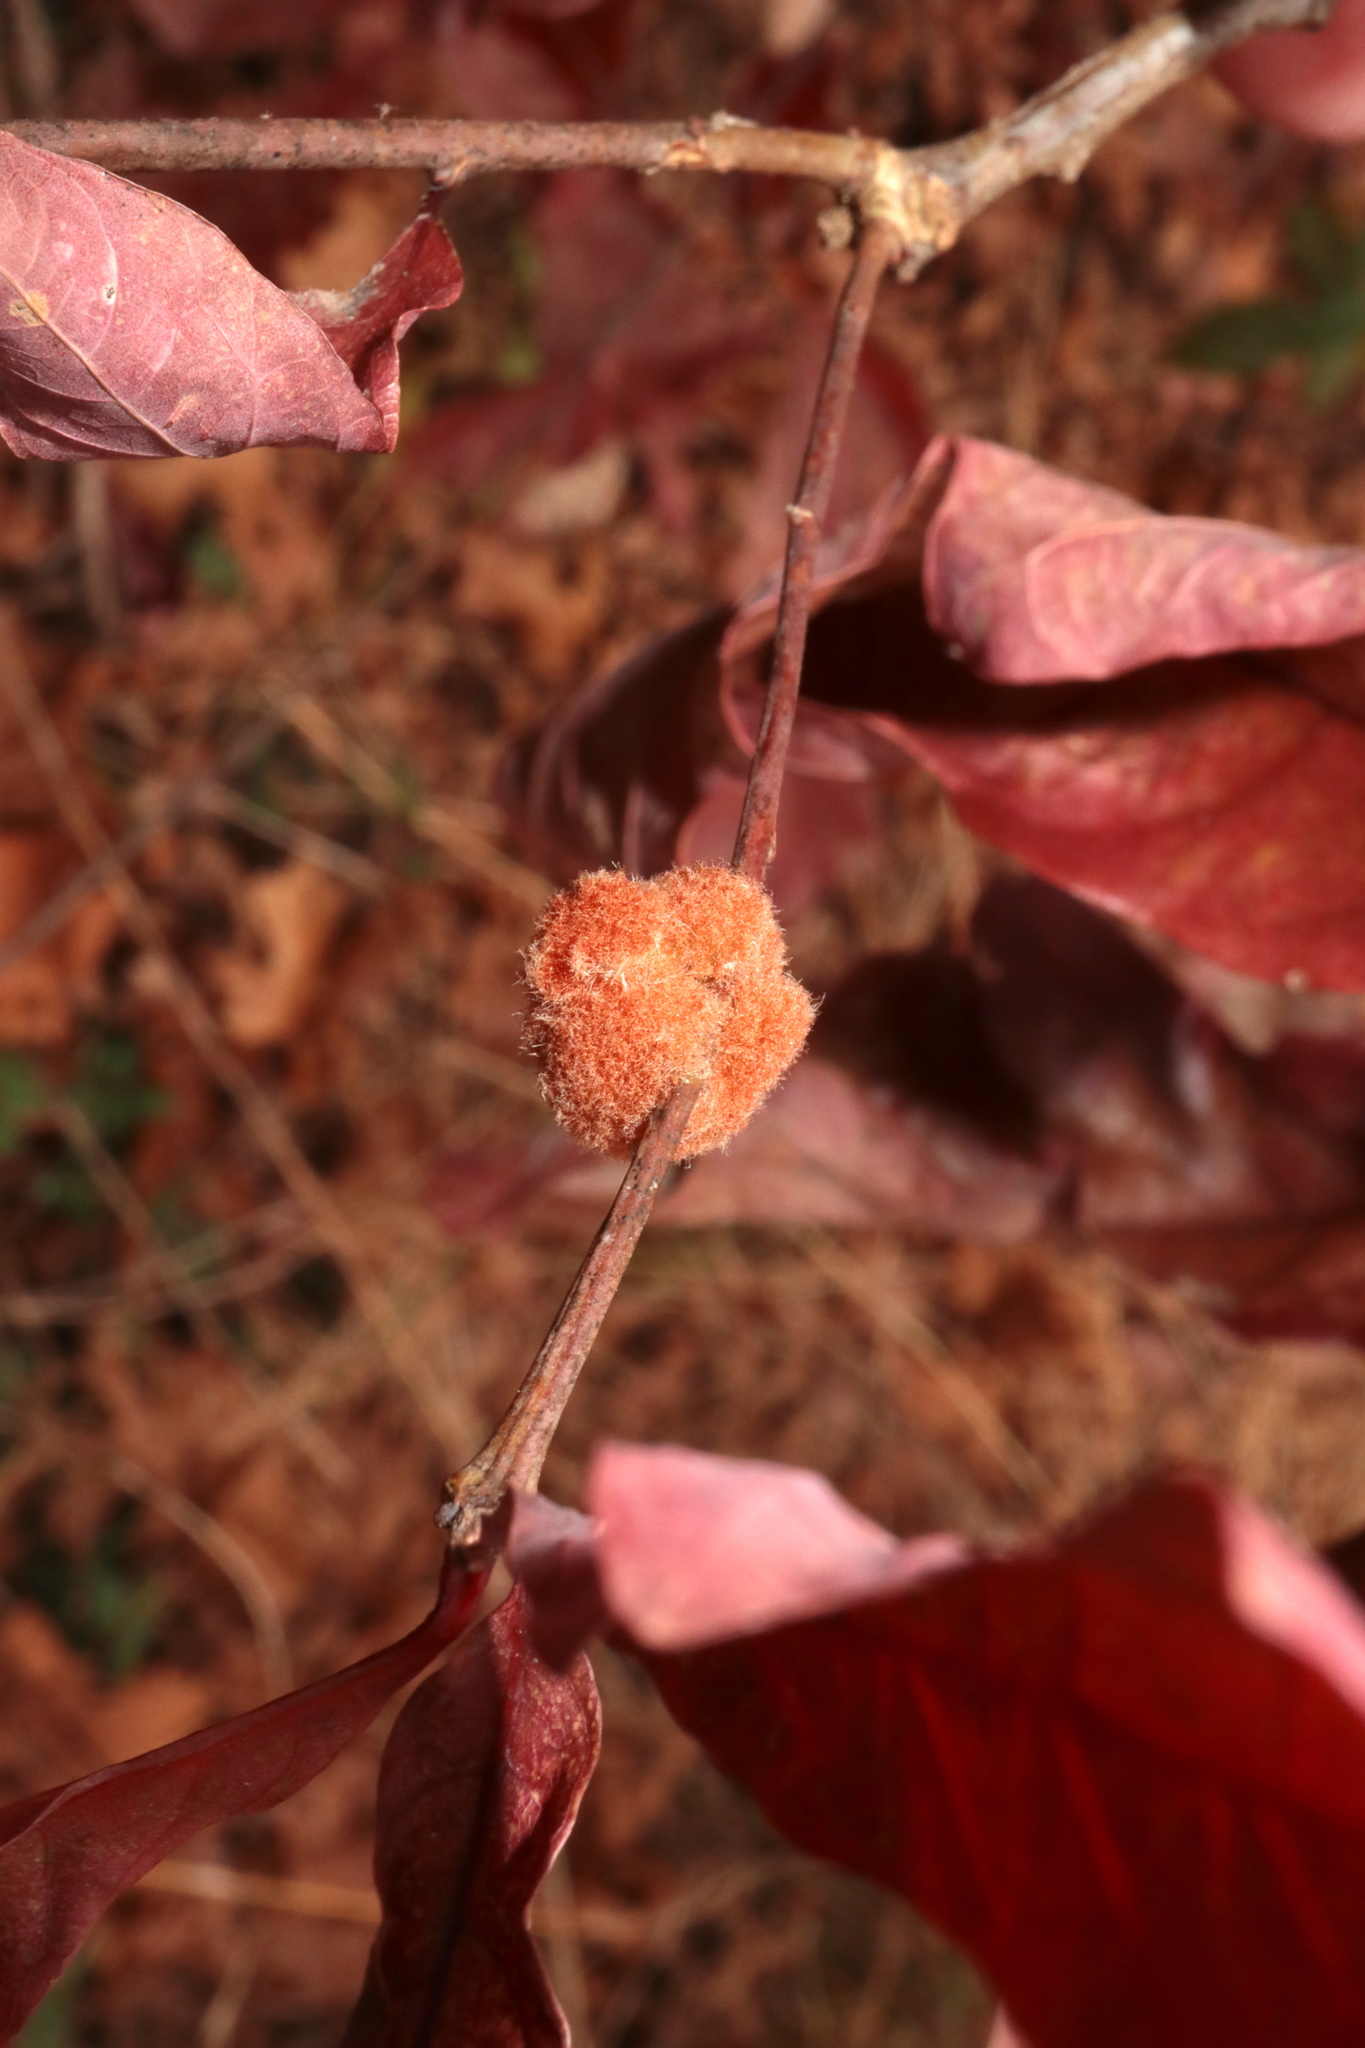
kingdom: Animalia
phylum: Arthropoda
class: Insecta
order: Hymenoptera
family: Cynipidae
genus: Andricus
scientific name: Andricus quercusflocci
